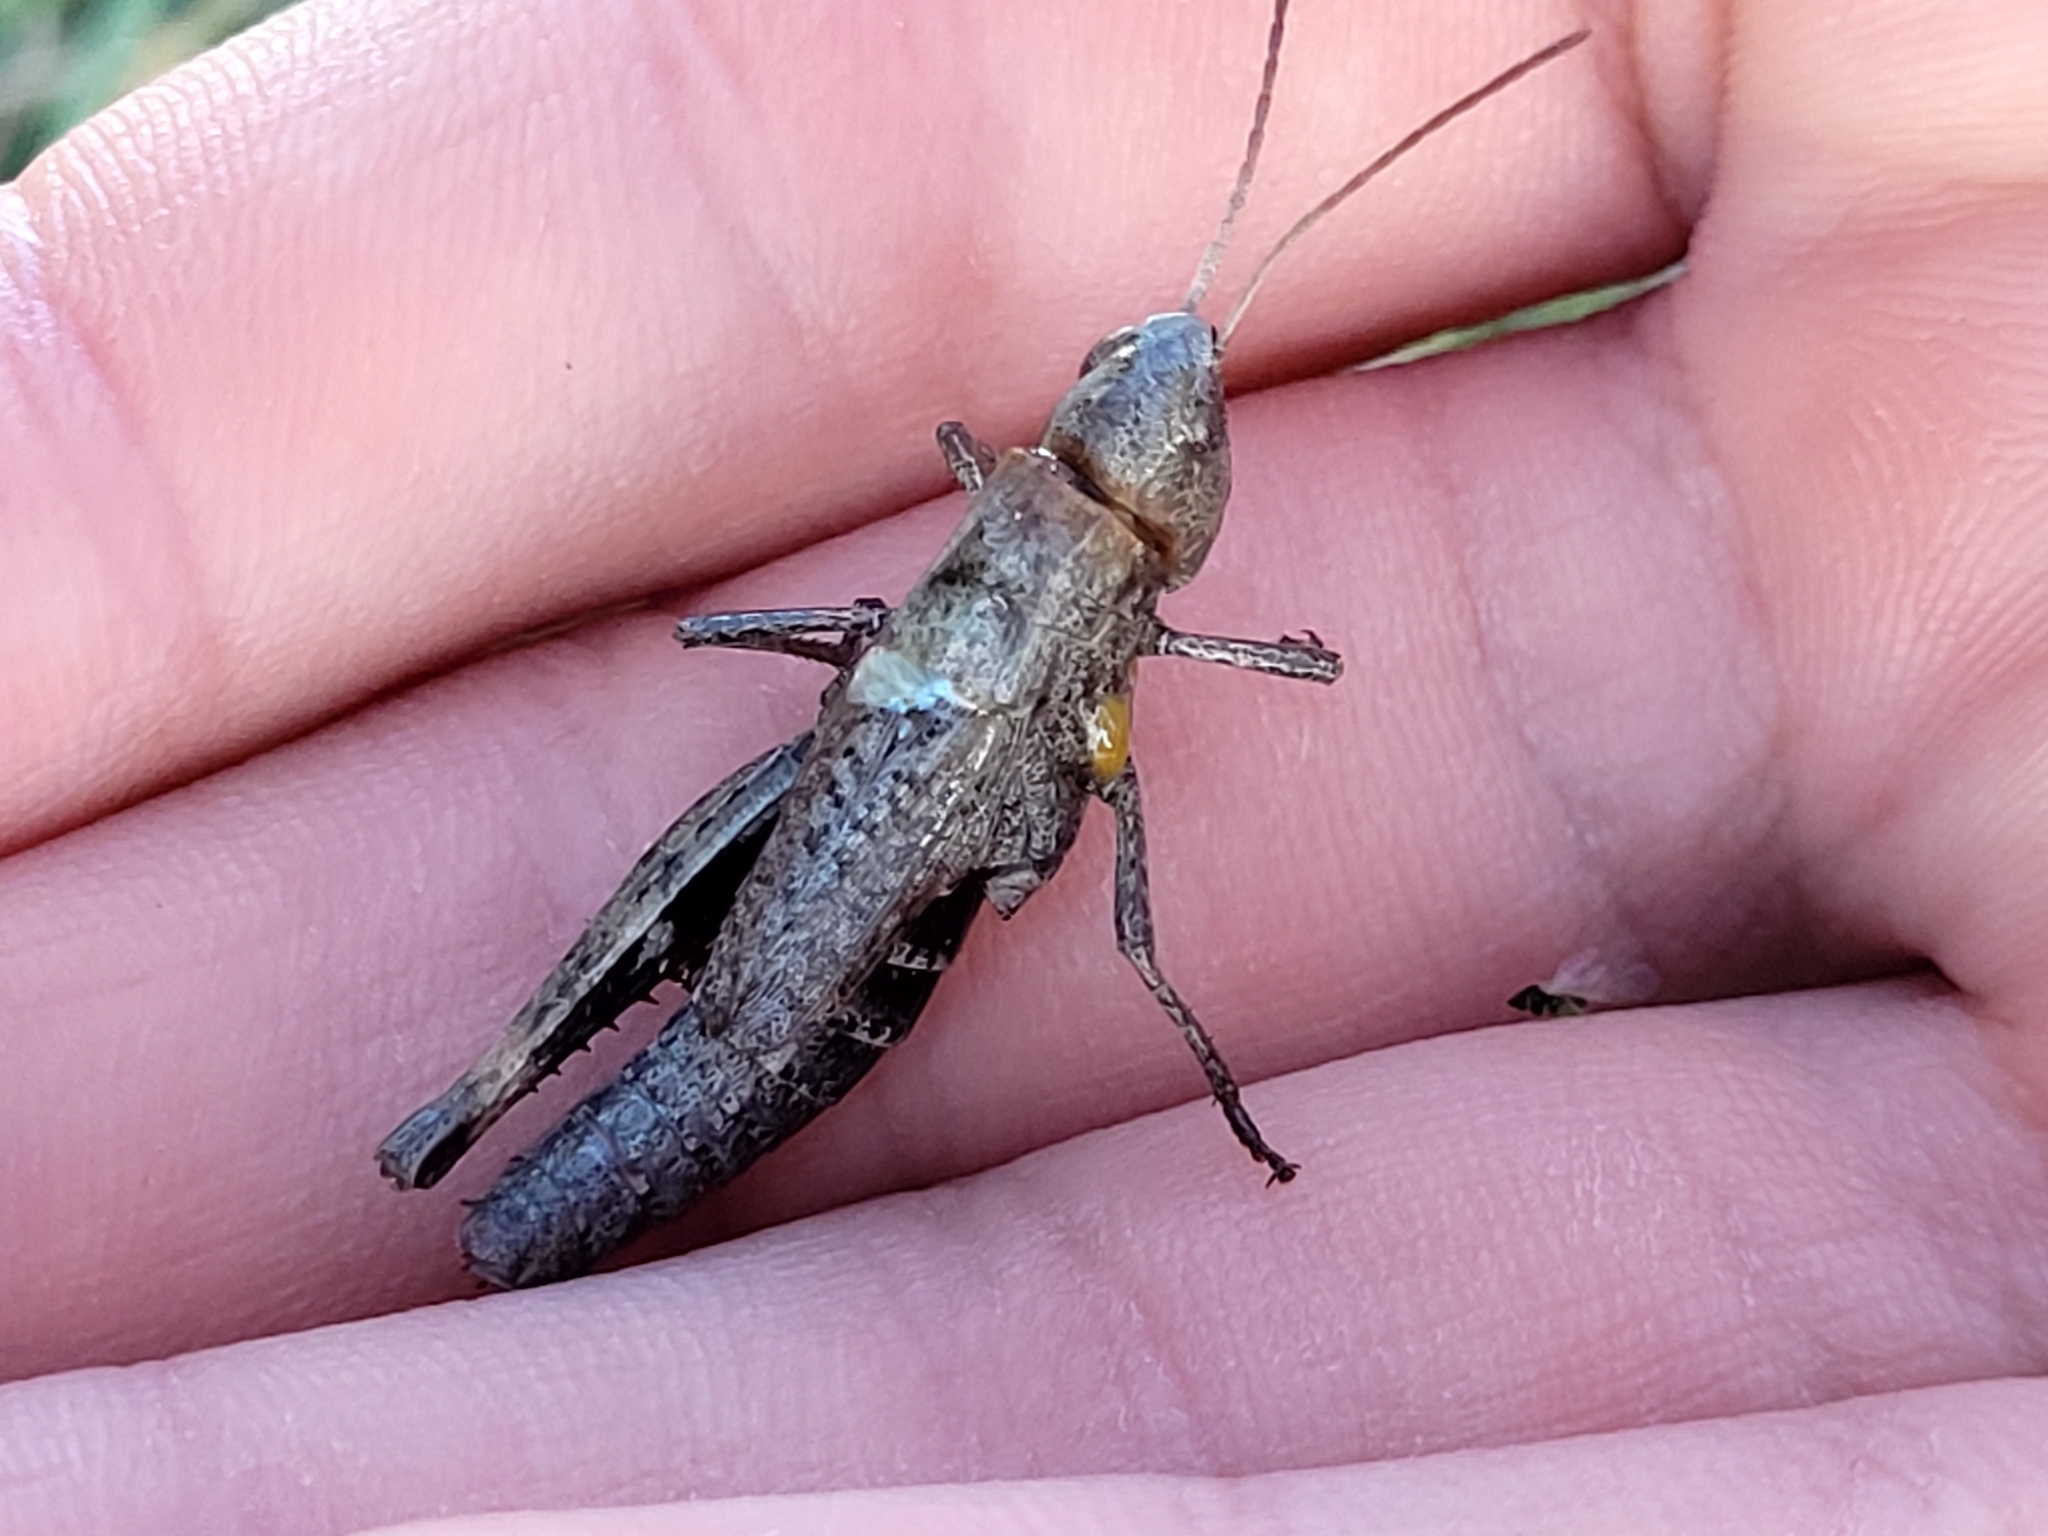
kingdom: Animalia
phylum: Arthropoda
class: Insecta
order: Orthoptera
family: Acrididae
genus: Chloealtis
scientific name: Chloealtis conspersa
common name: Sprinkled broad-winged grasshopper
